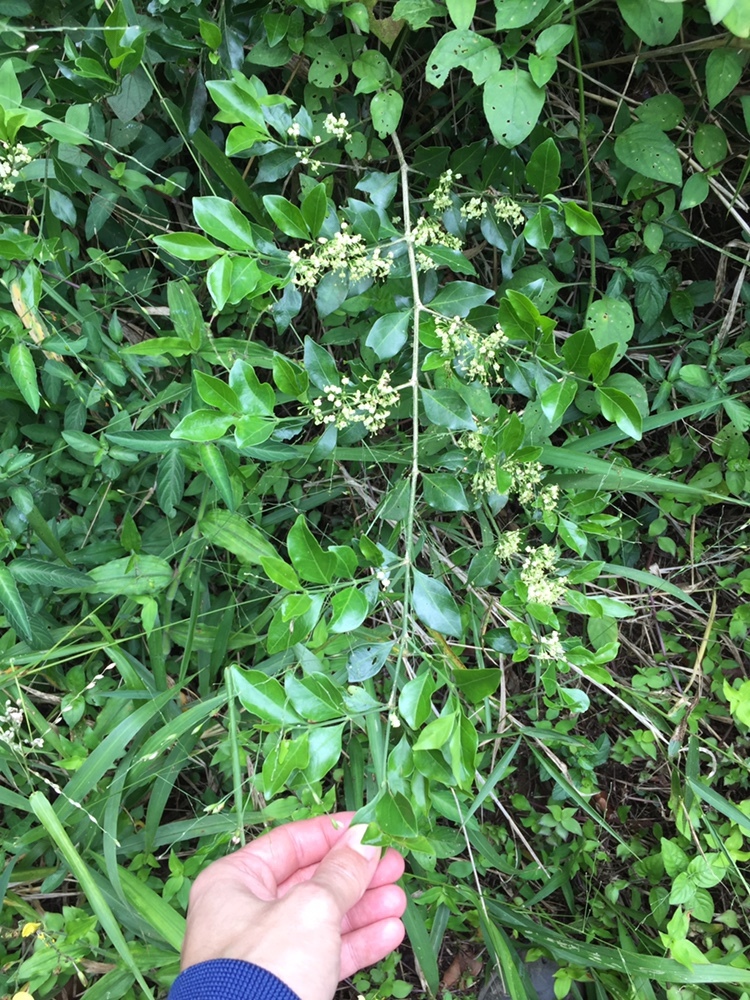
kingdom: Plantae
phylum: Tracheophyta
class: Magnoliopsida
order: Gentianales
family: Rubiaceae
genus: Psydrax
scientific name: Psydrax locuples
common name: Sand quar
